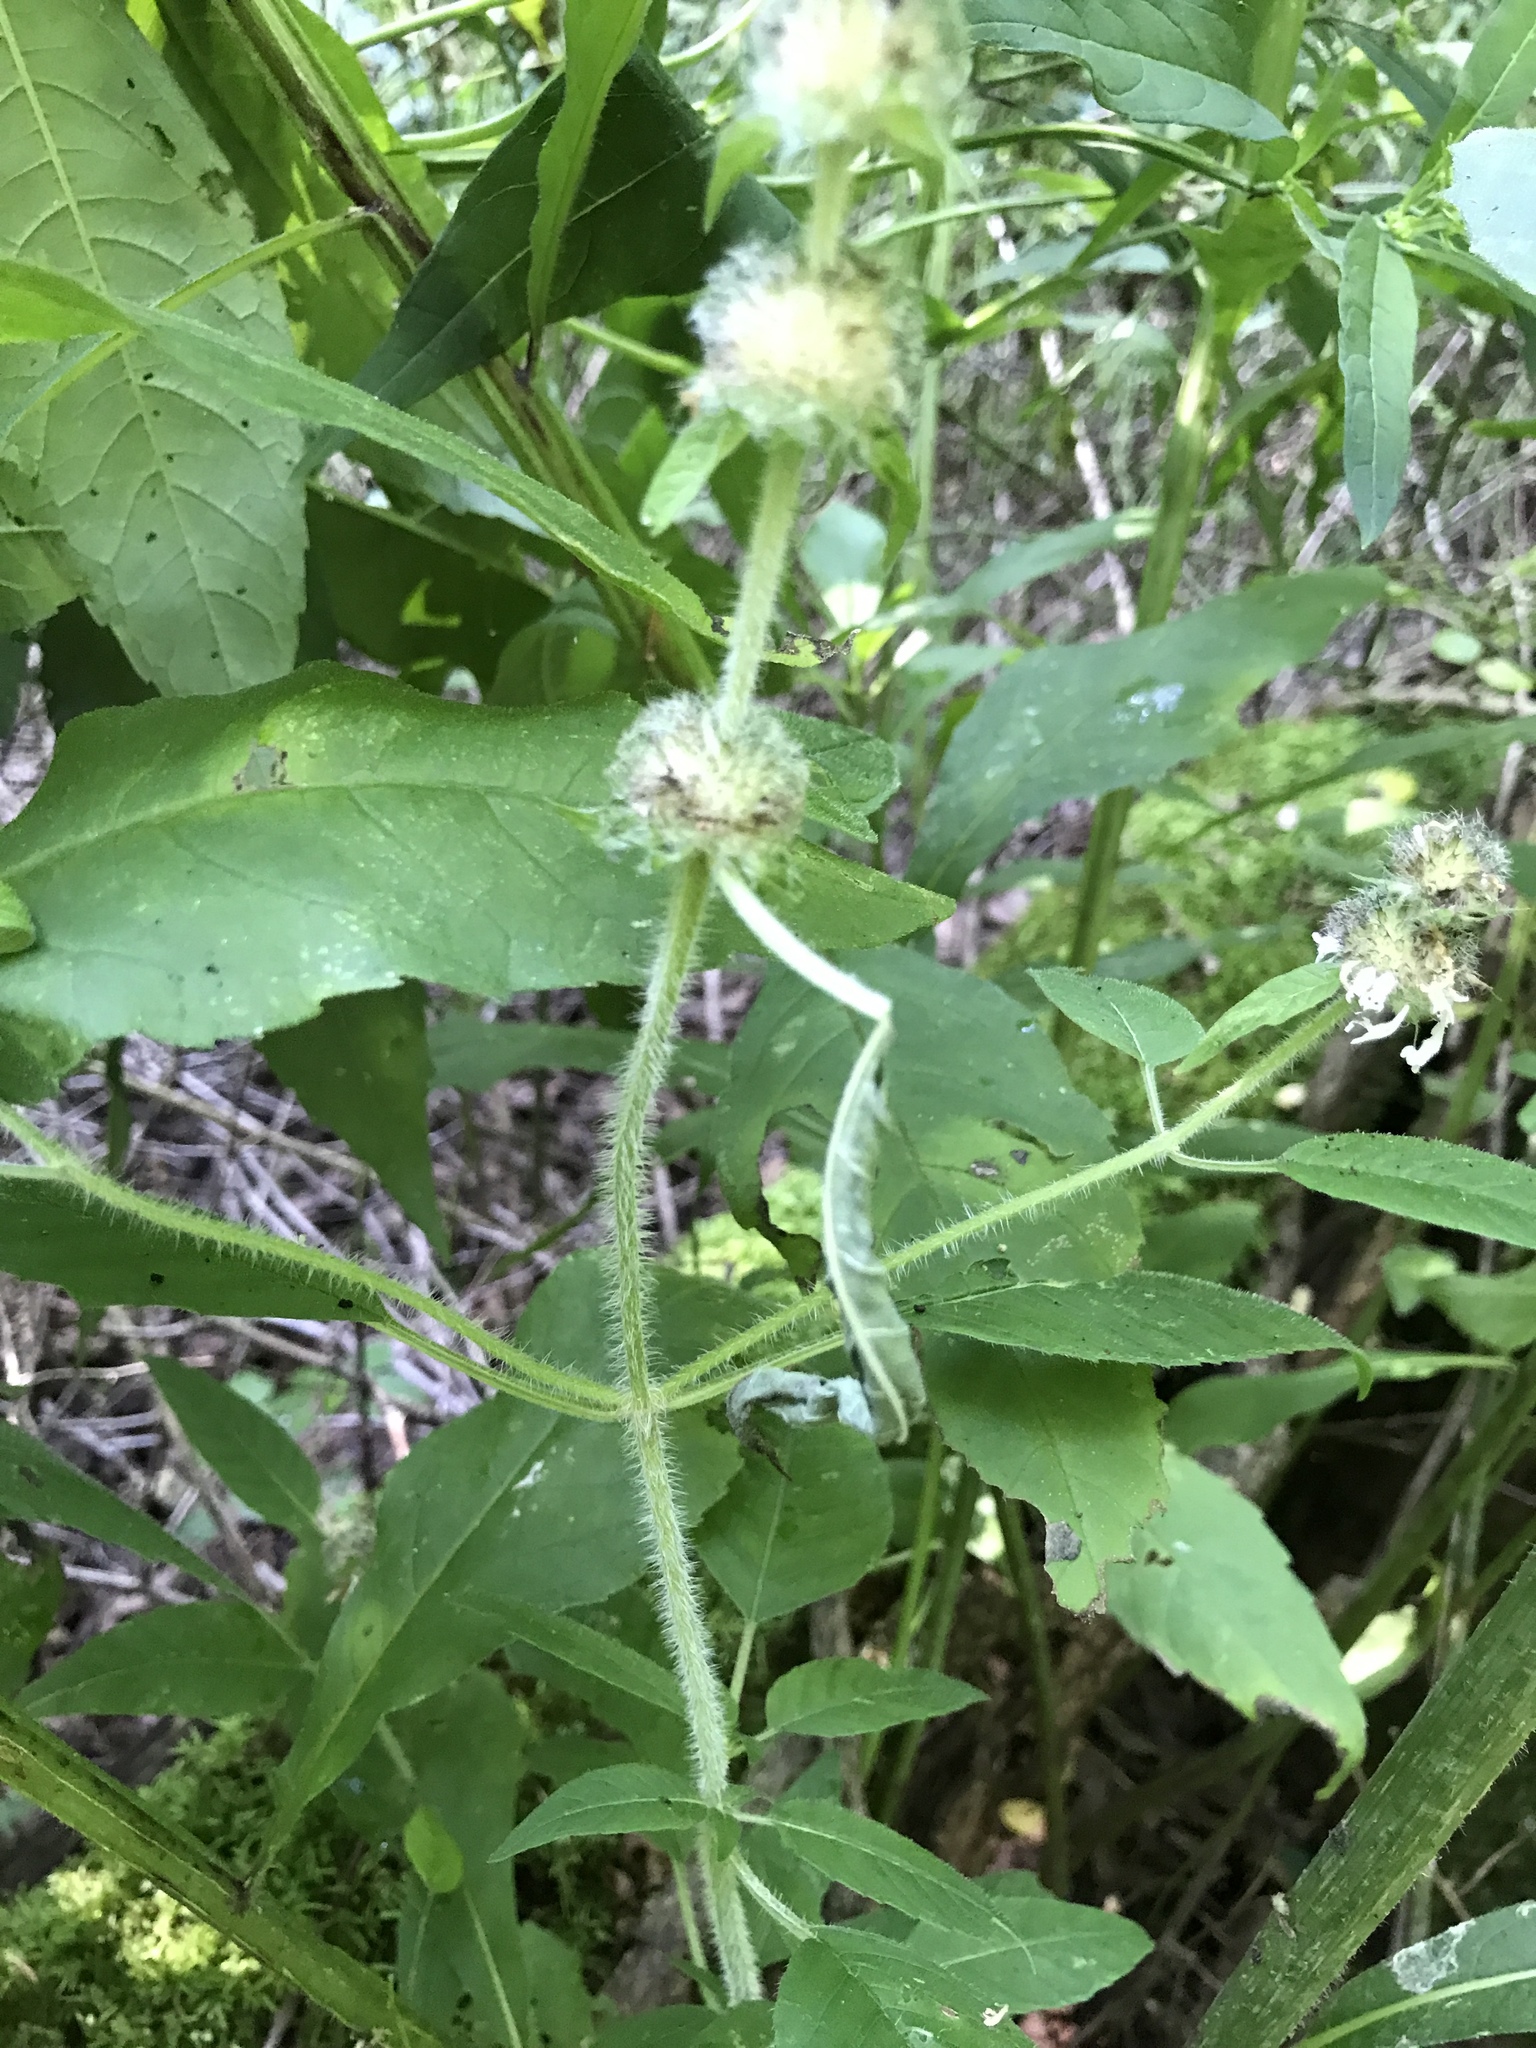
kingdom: Plantae
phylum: Tracheophyta
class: Magnoliopsida
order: Lamiales
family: Lamiaceae
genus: Blephilia
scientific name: Blephilia hirsuta
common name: Hairy blephilia
